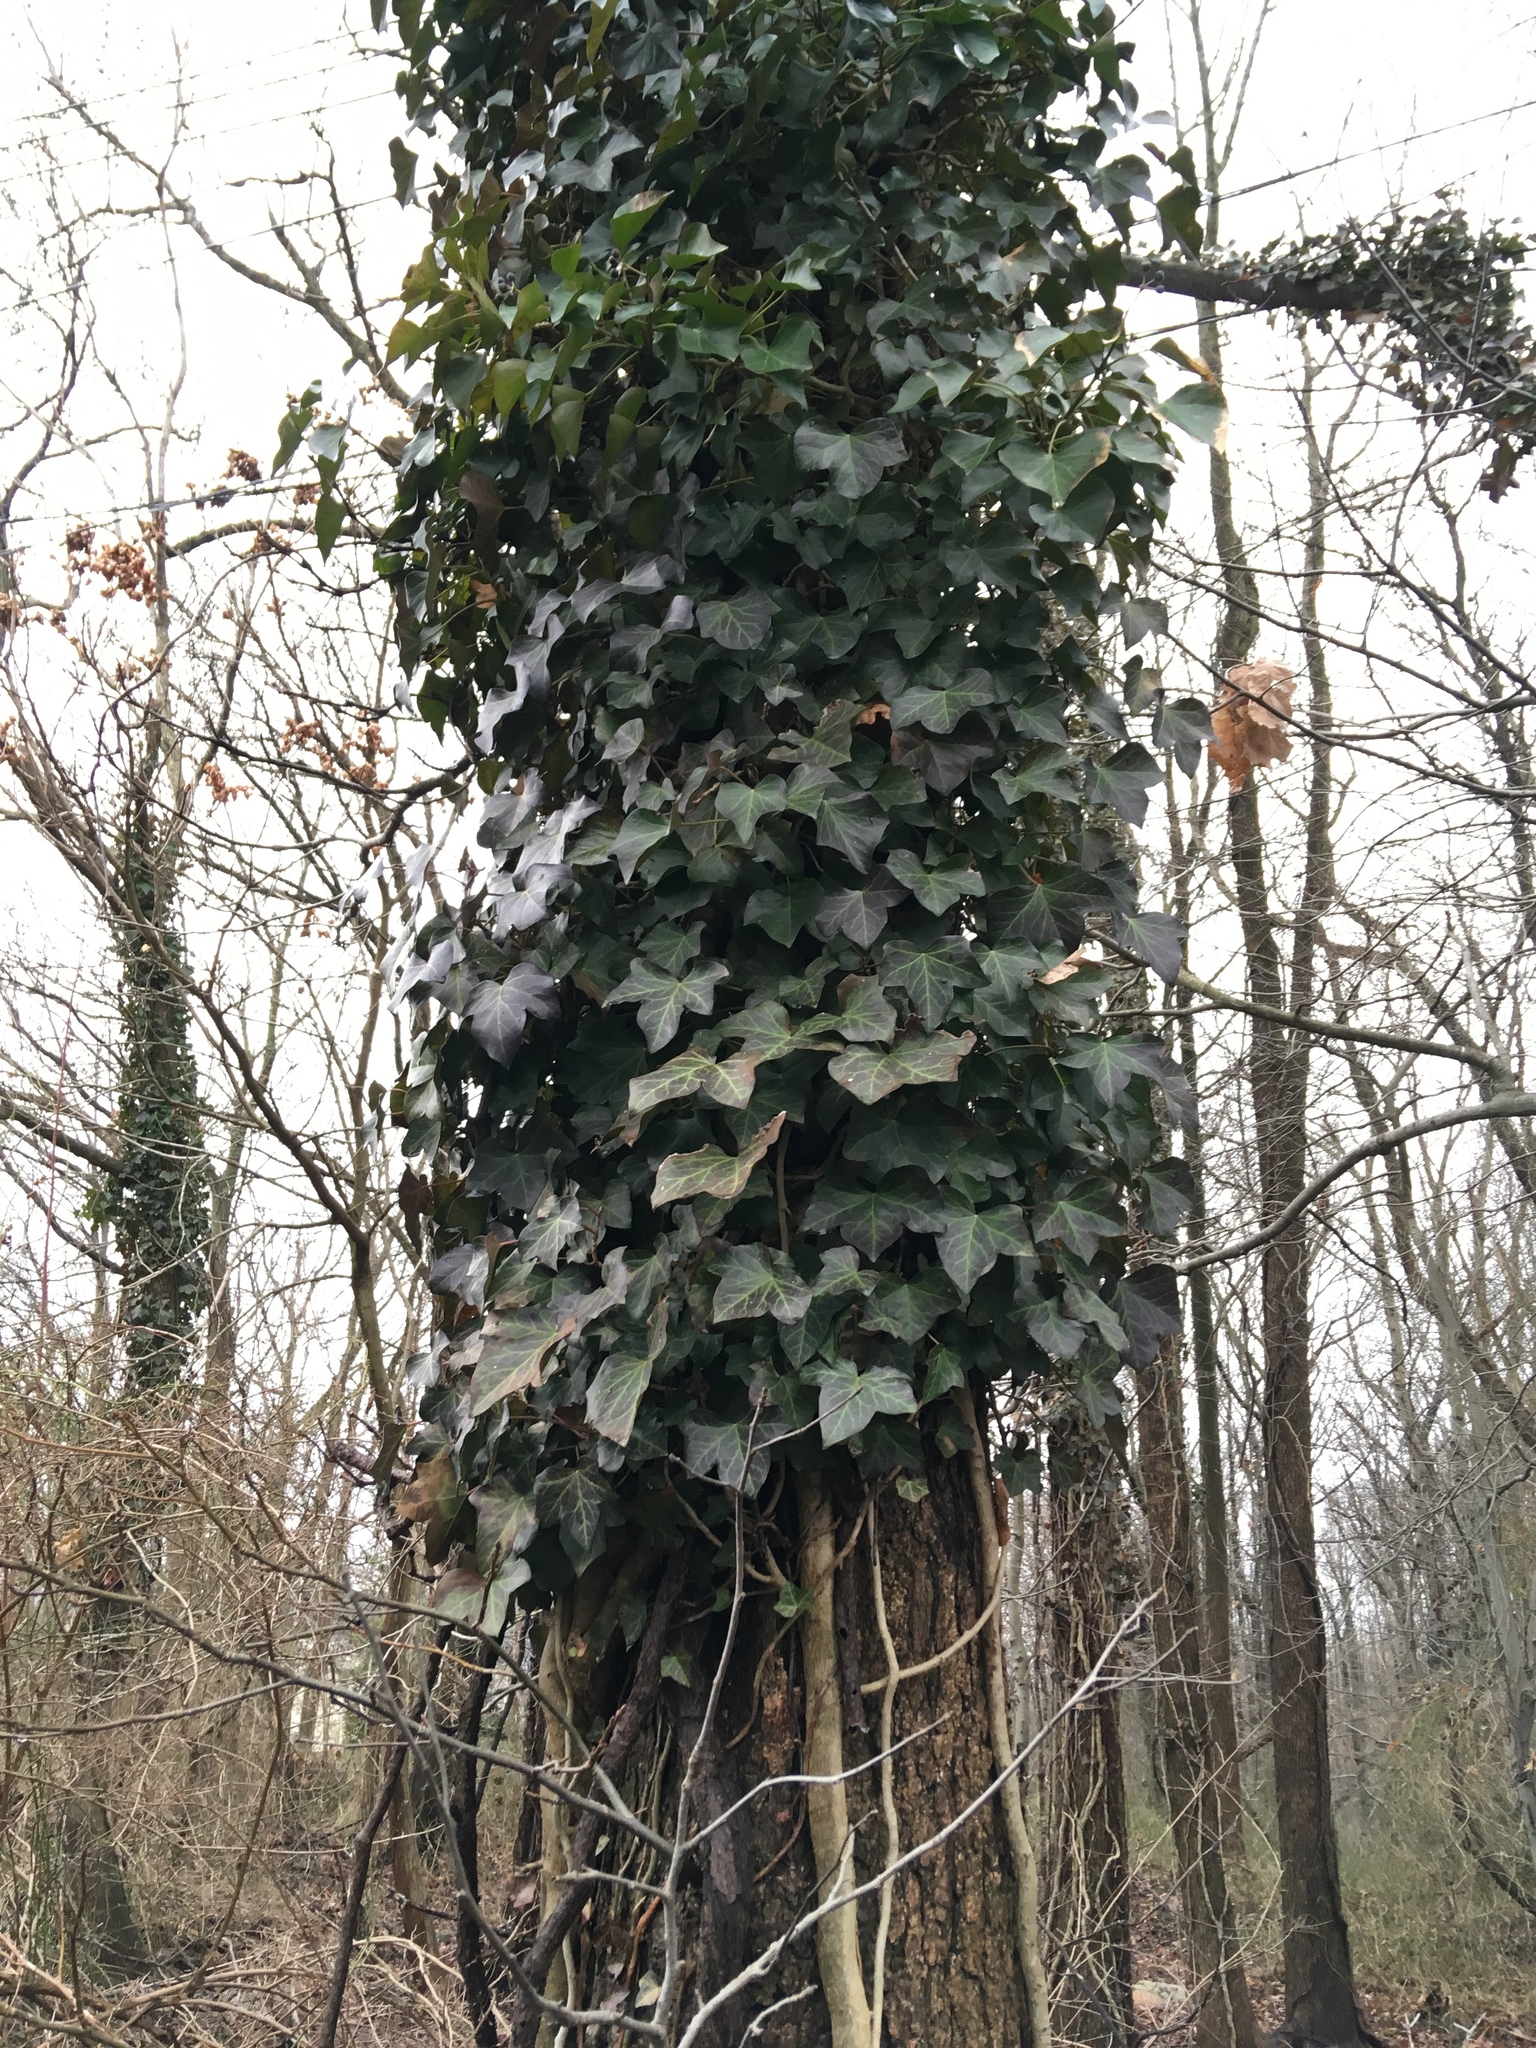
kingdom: Plantae
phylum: Tracheophyta
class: Magnoliopsida
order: Apiales
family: Araliaceae
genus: Hedera
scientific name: Hedera helix
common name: Ivy
